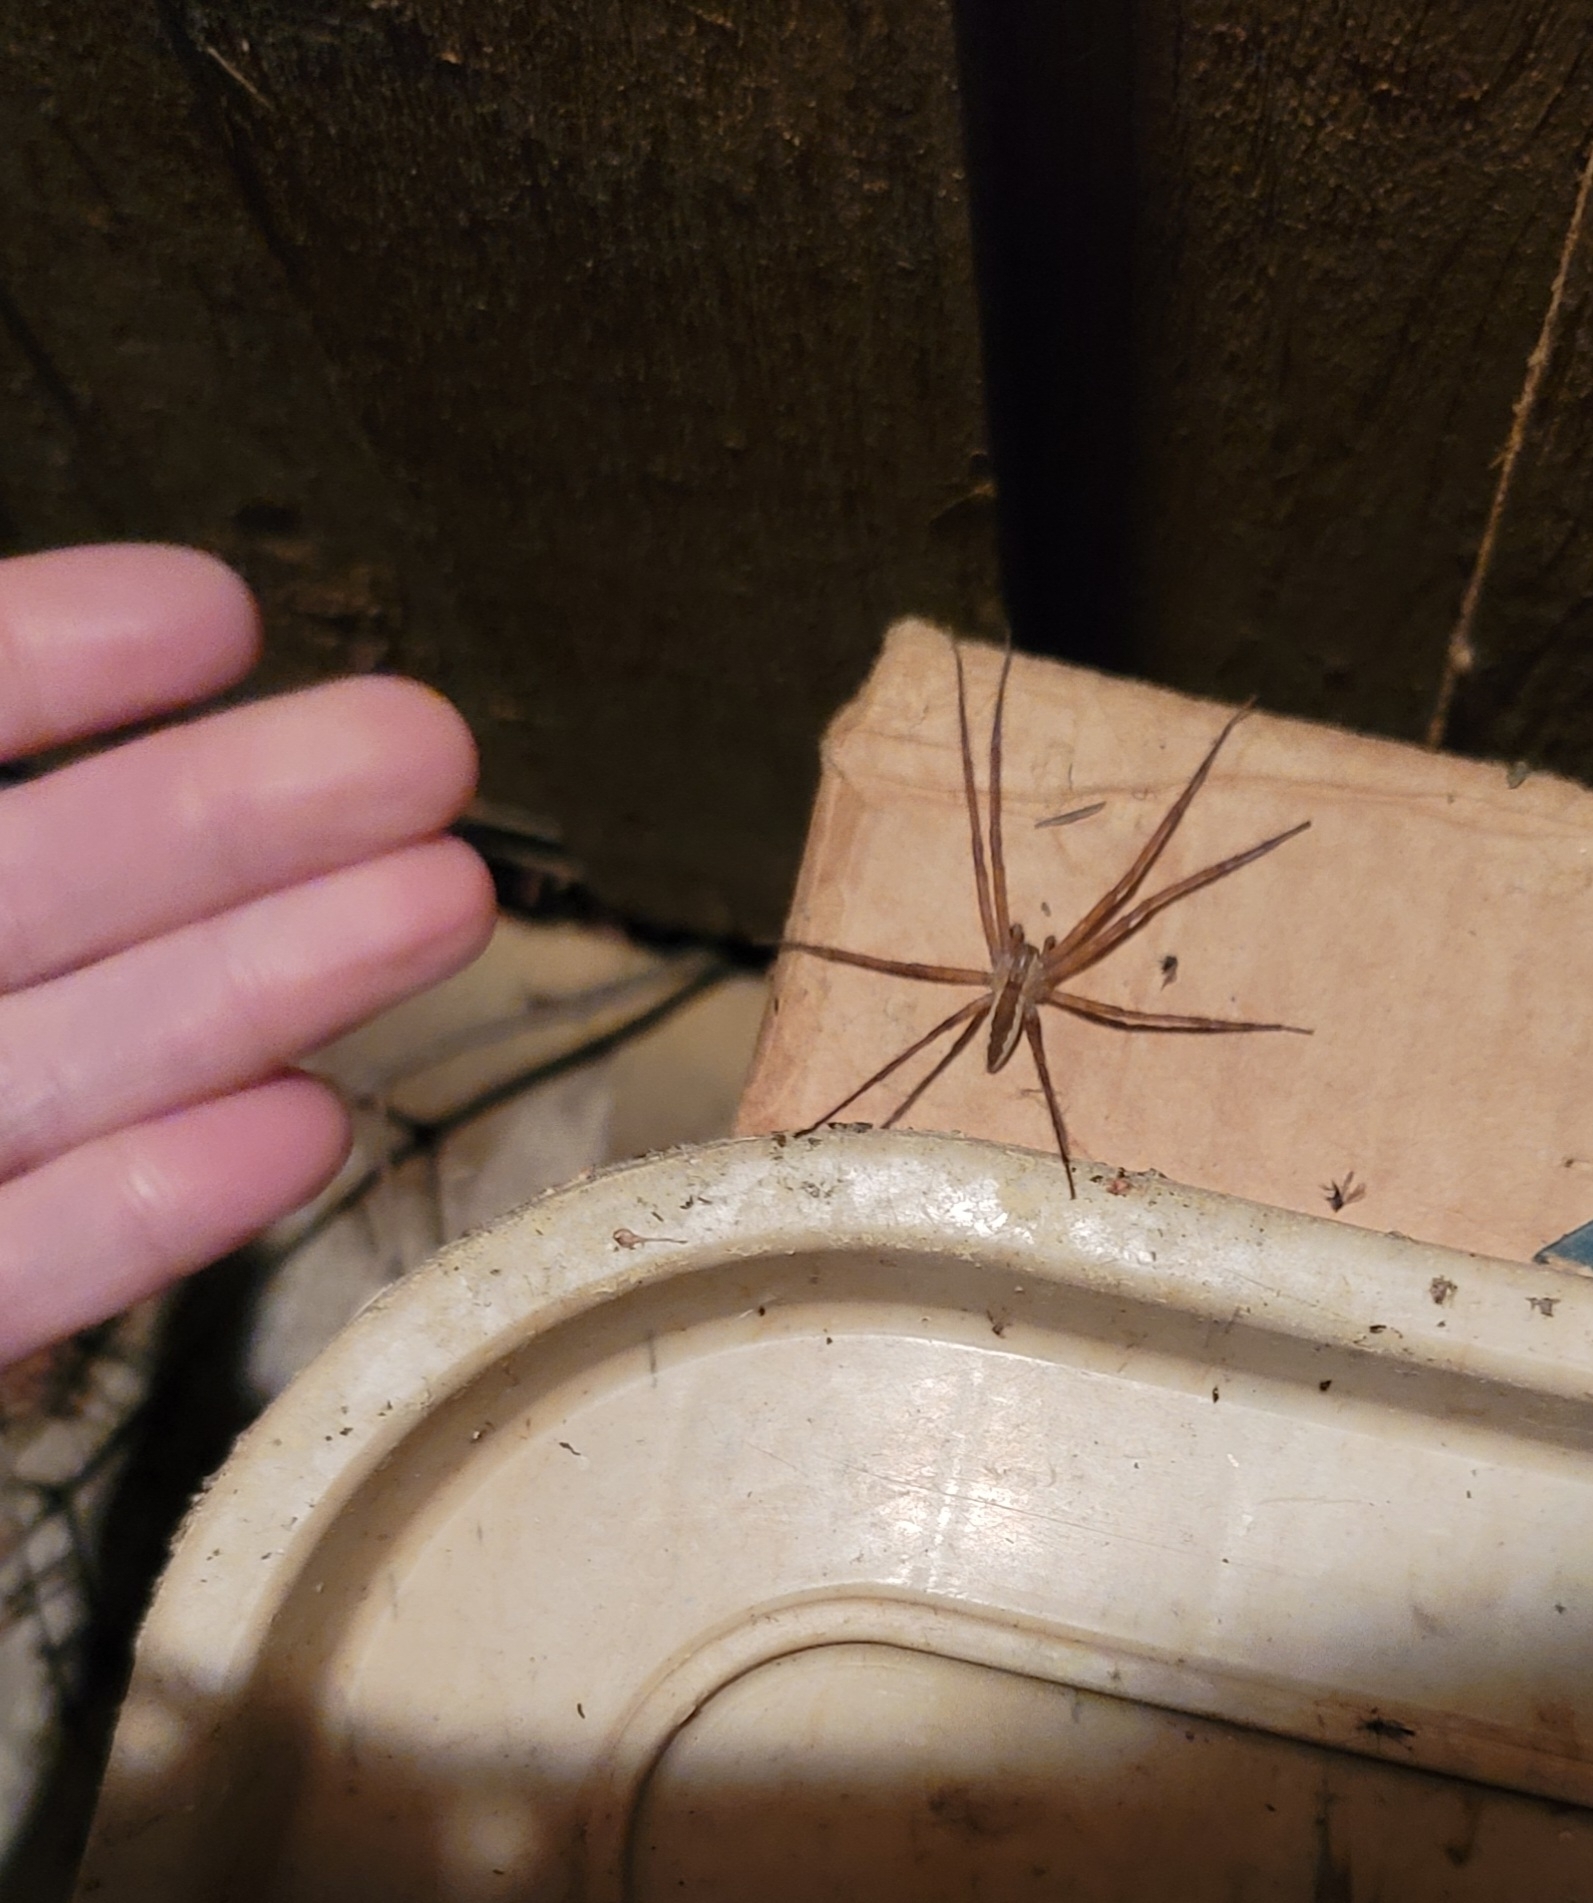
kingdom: Animalia
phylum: Arthropoda
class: Arachnida
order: Araneae
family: Pisauridae
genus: Pisaurina
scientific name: Pisaurina mira
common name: American nursery web spider
